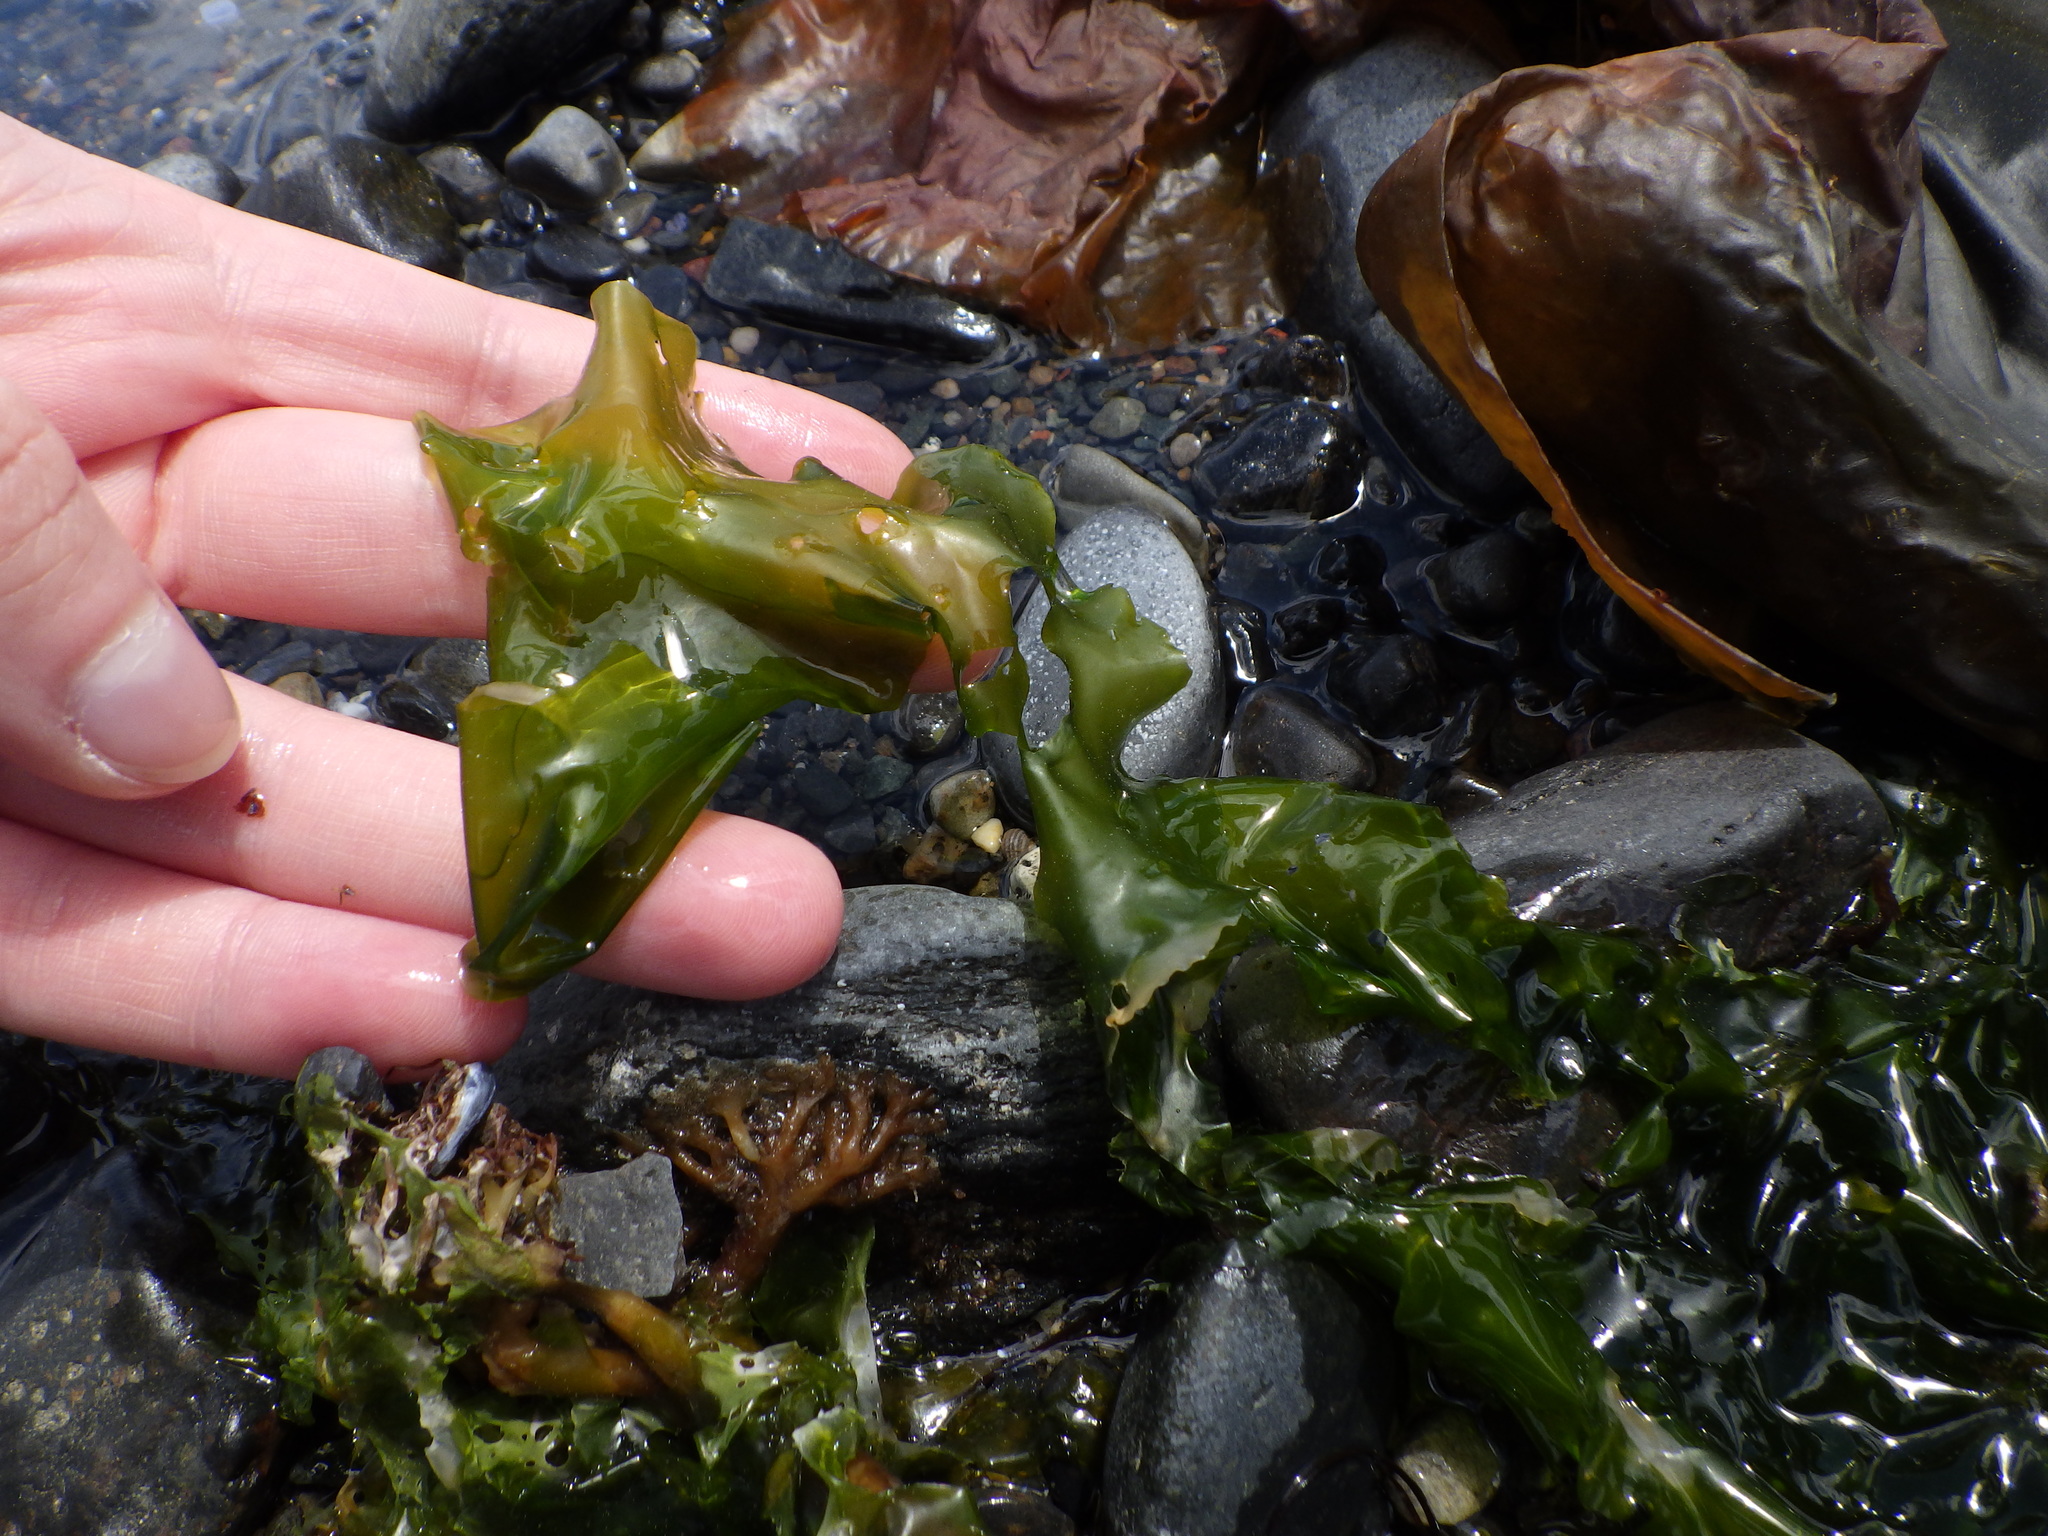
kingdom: Plantae
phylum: Chlorophyta
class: Ulvophyceae
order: Ulvales
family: Ulvaceae
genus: Ulva
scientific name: Ulva lactuca
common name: Sea lettuce
